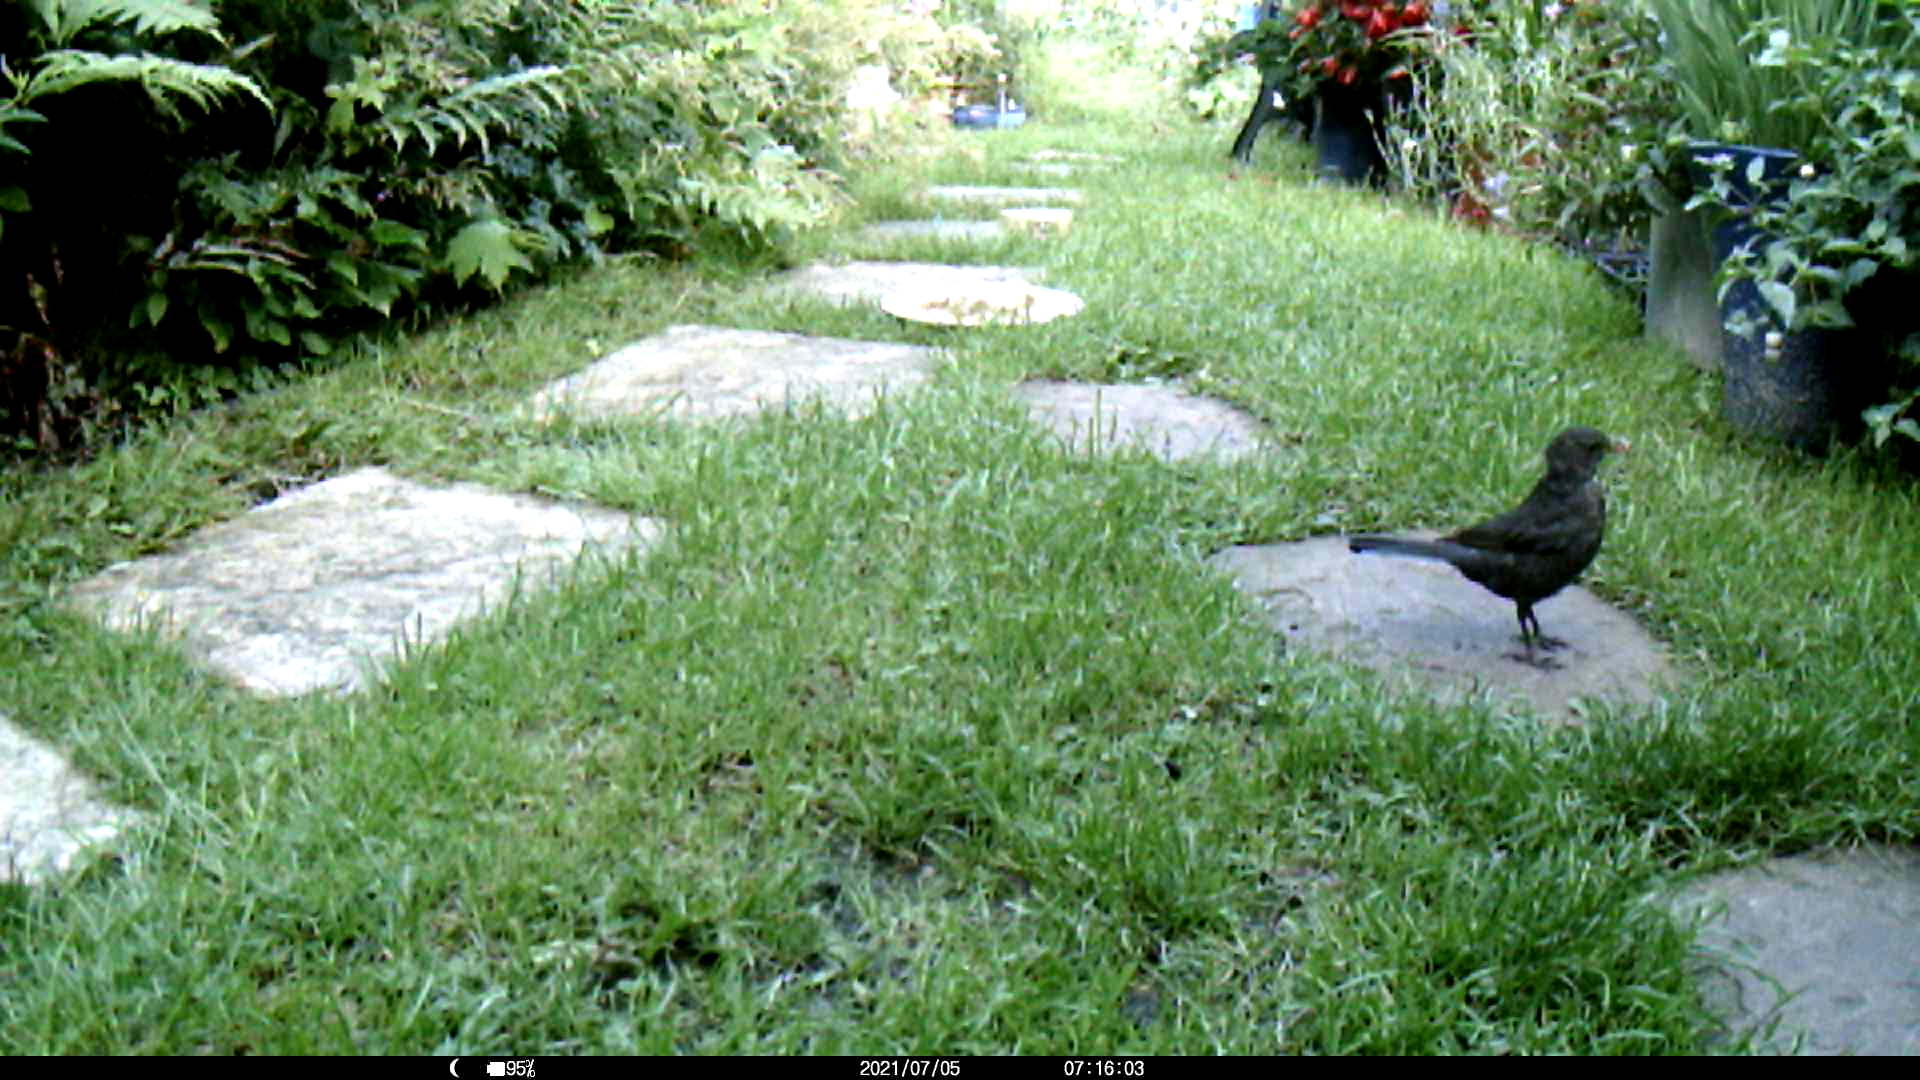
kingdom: Animalia
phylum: Chordata
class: Aves
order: Passeriformes
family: Turdidae
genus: Turdus
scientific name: Turdus merula
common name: Common blackbird
